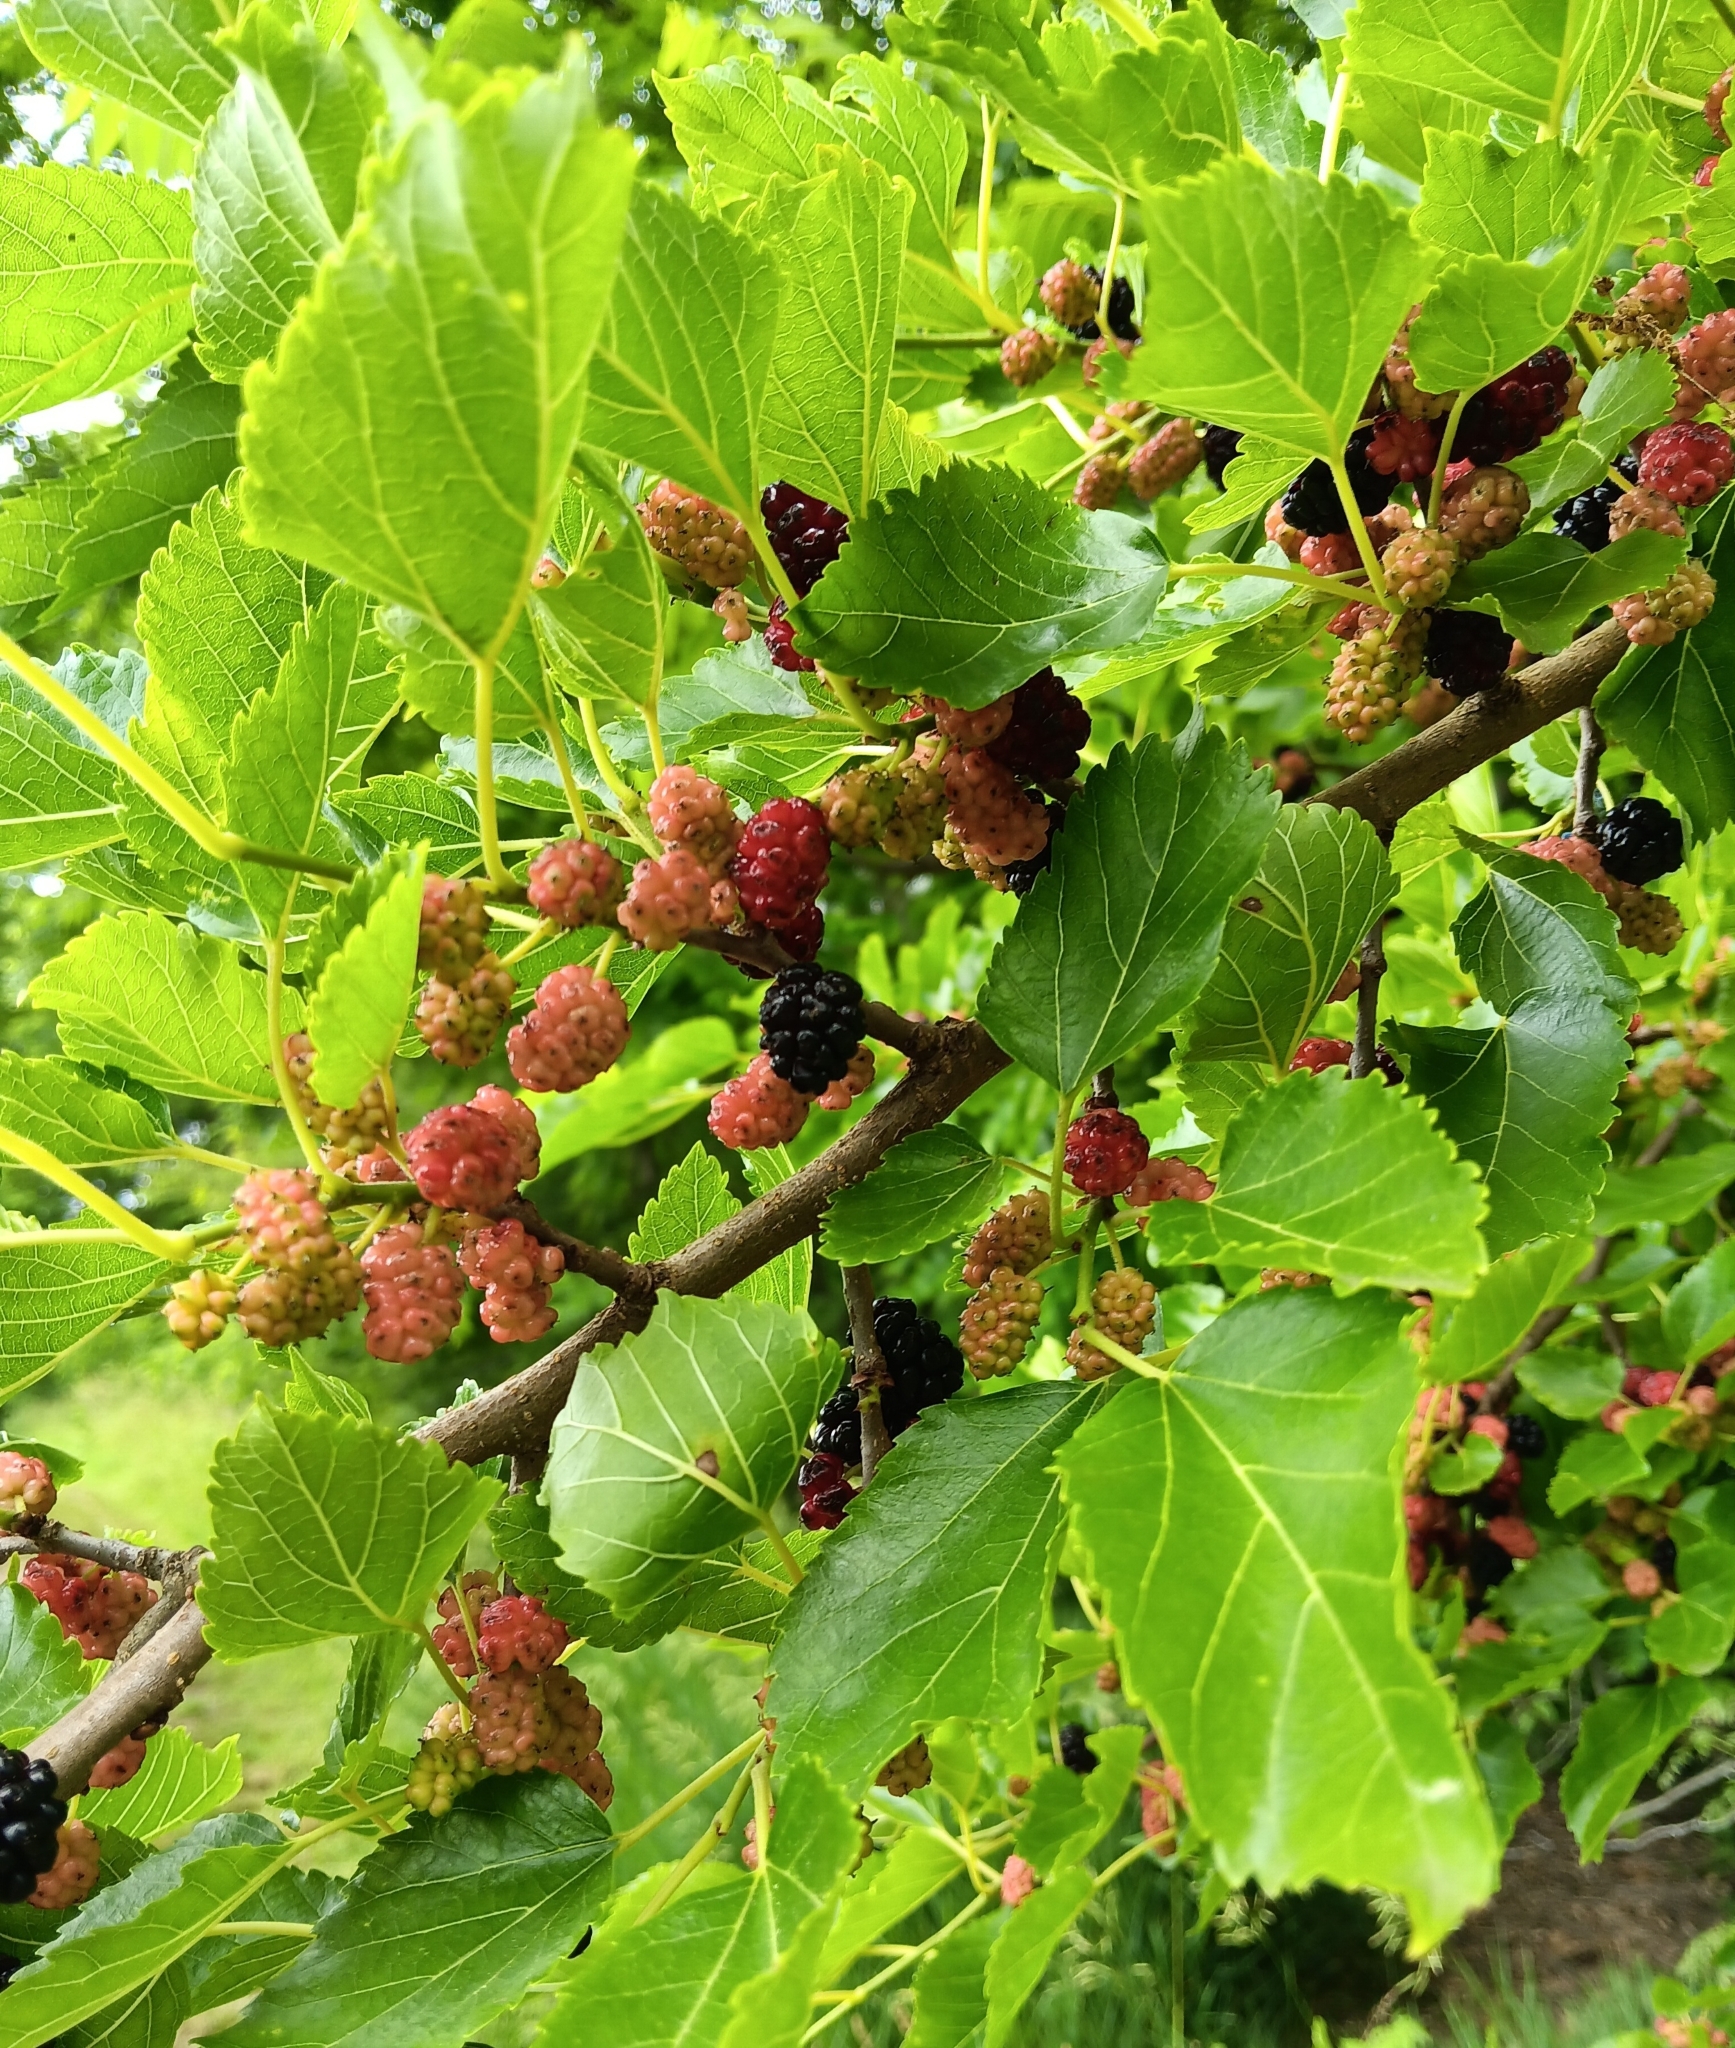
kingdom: Plantae
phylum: Tracheophyta
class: Magnoliopsida
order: Rosales
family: Moraceae
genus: Morus
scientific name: Morus alba
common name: White mulberry
